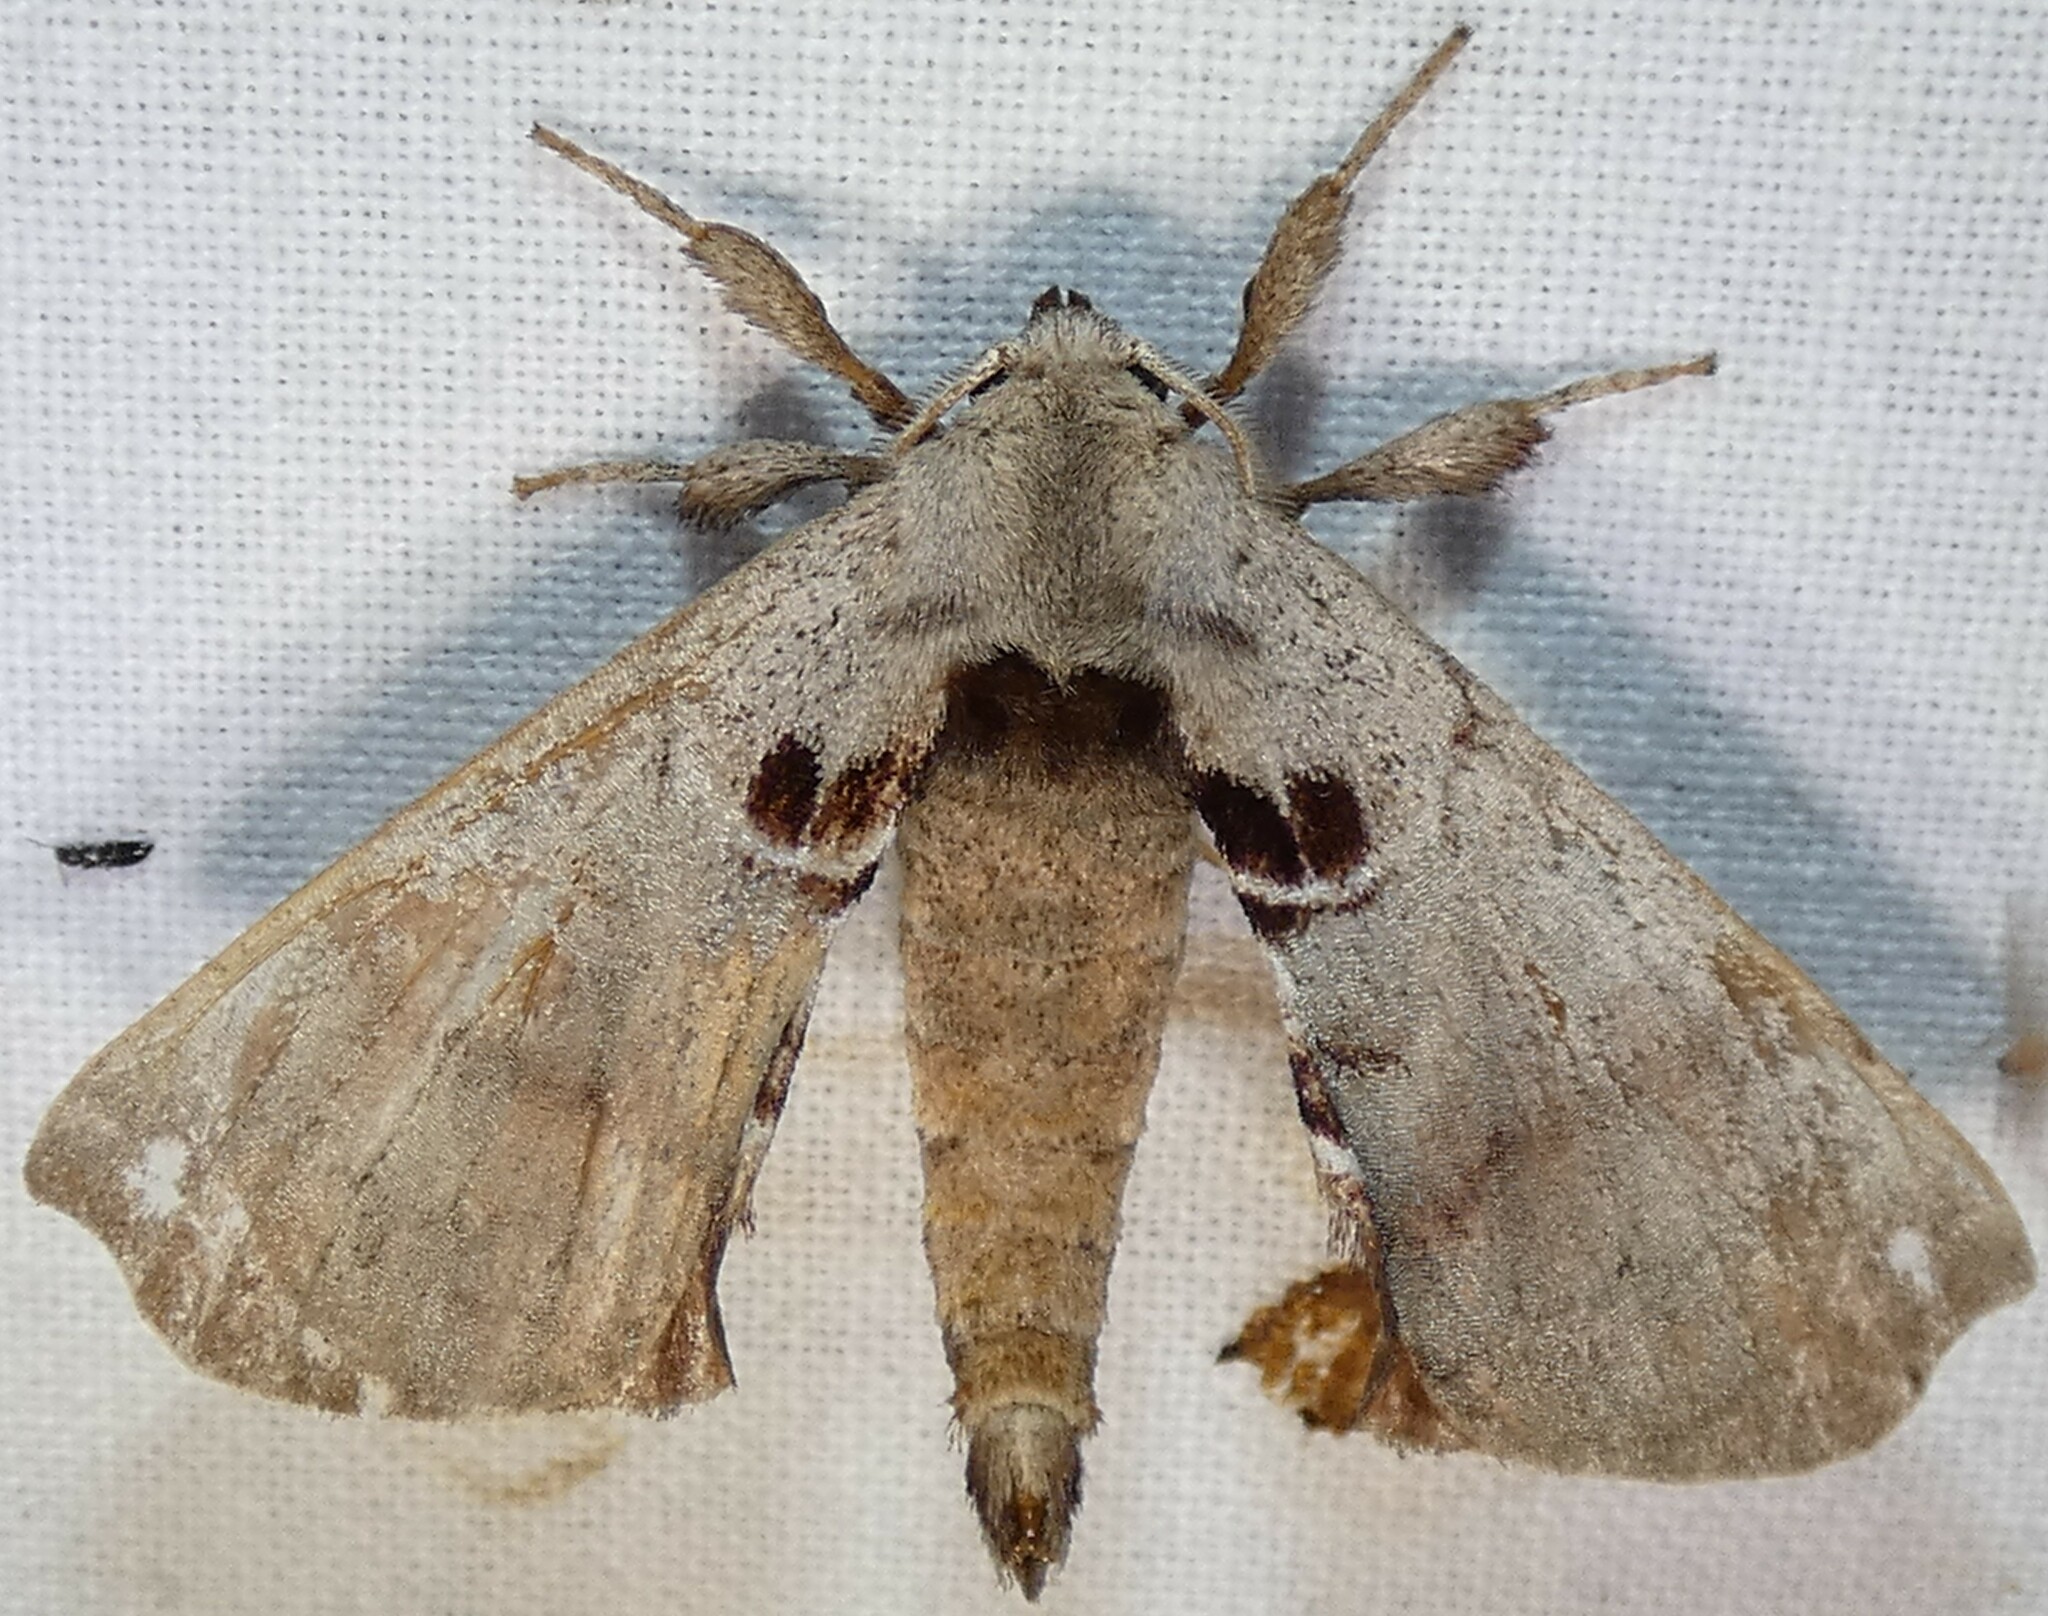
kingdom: Animalia
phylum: Arthropoda
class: Insecta
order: Lepidoptera
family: Apatelodidae
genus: Hygrochroa
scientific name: Hygrochroa Apatelodes torrefacta
